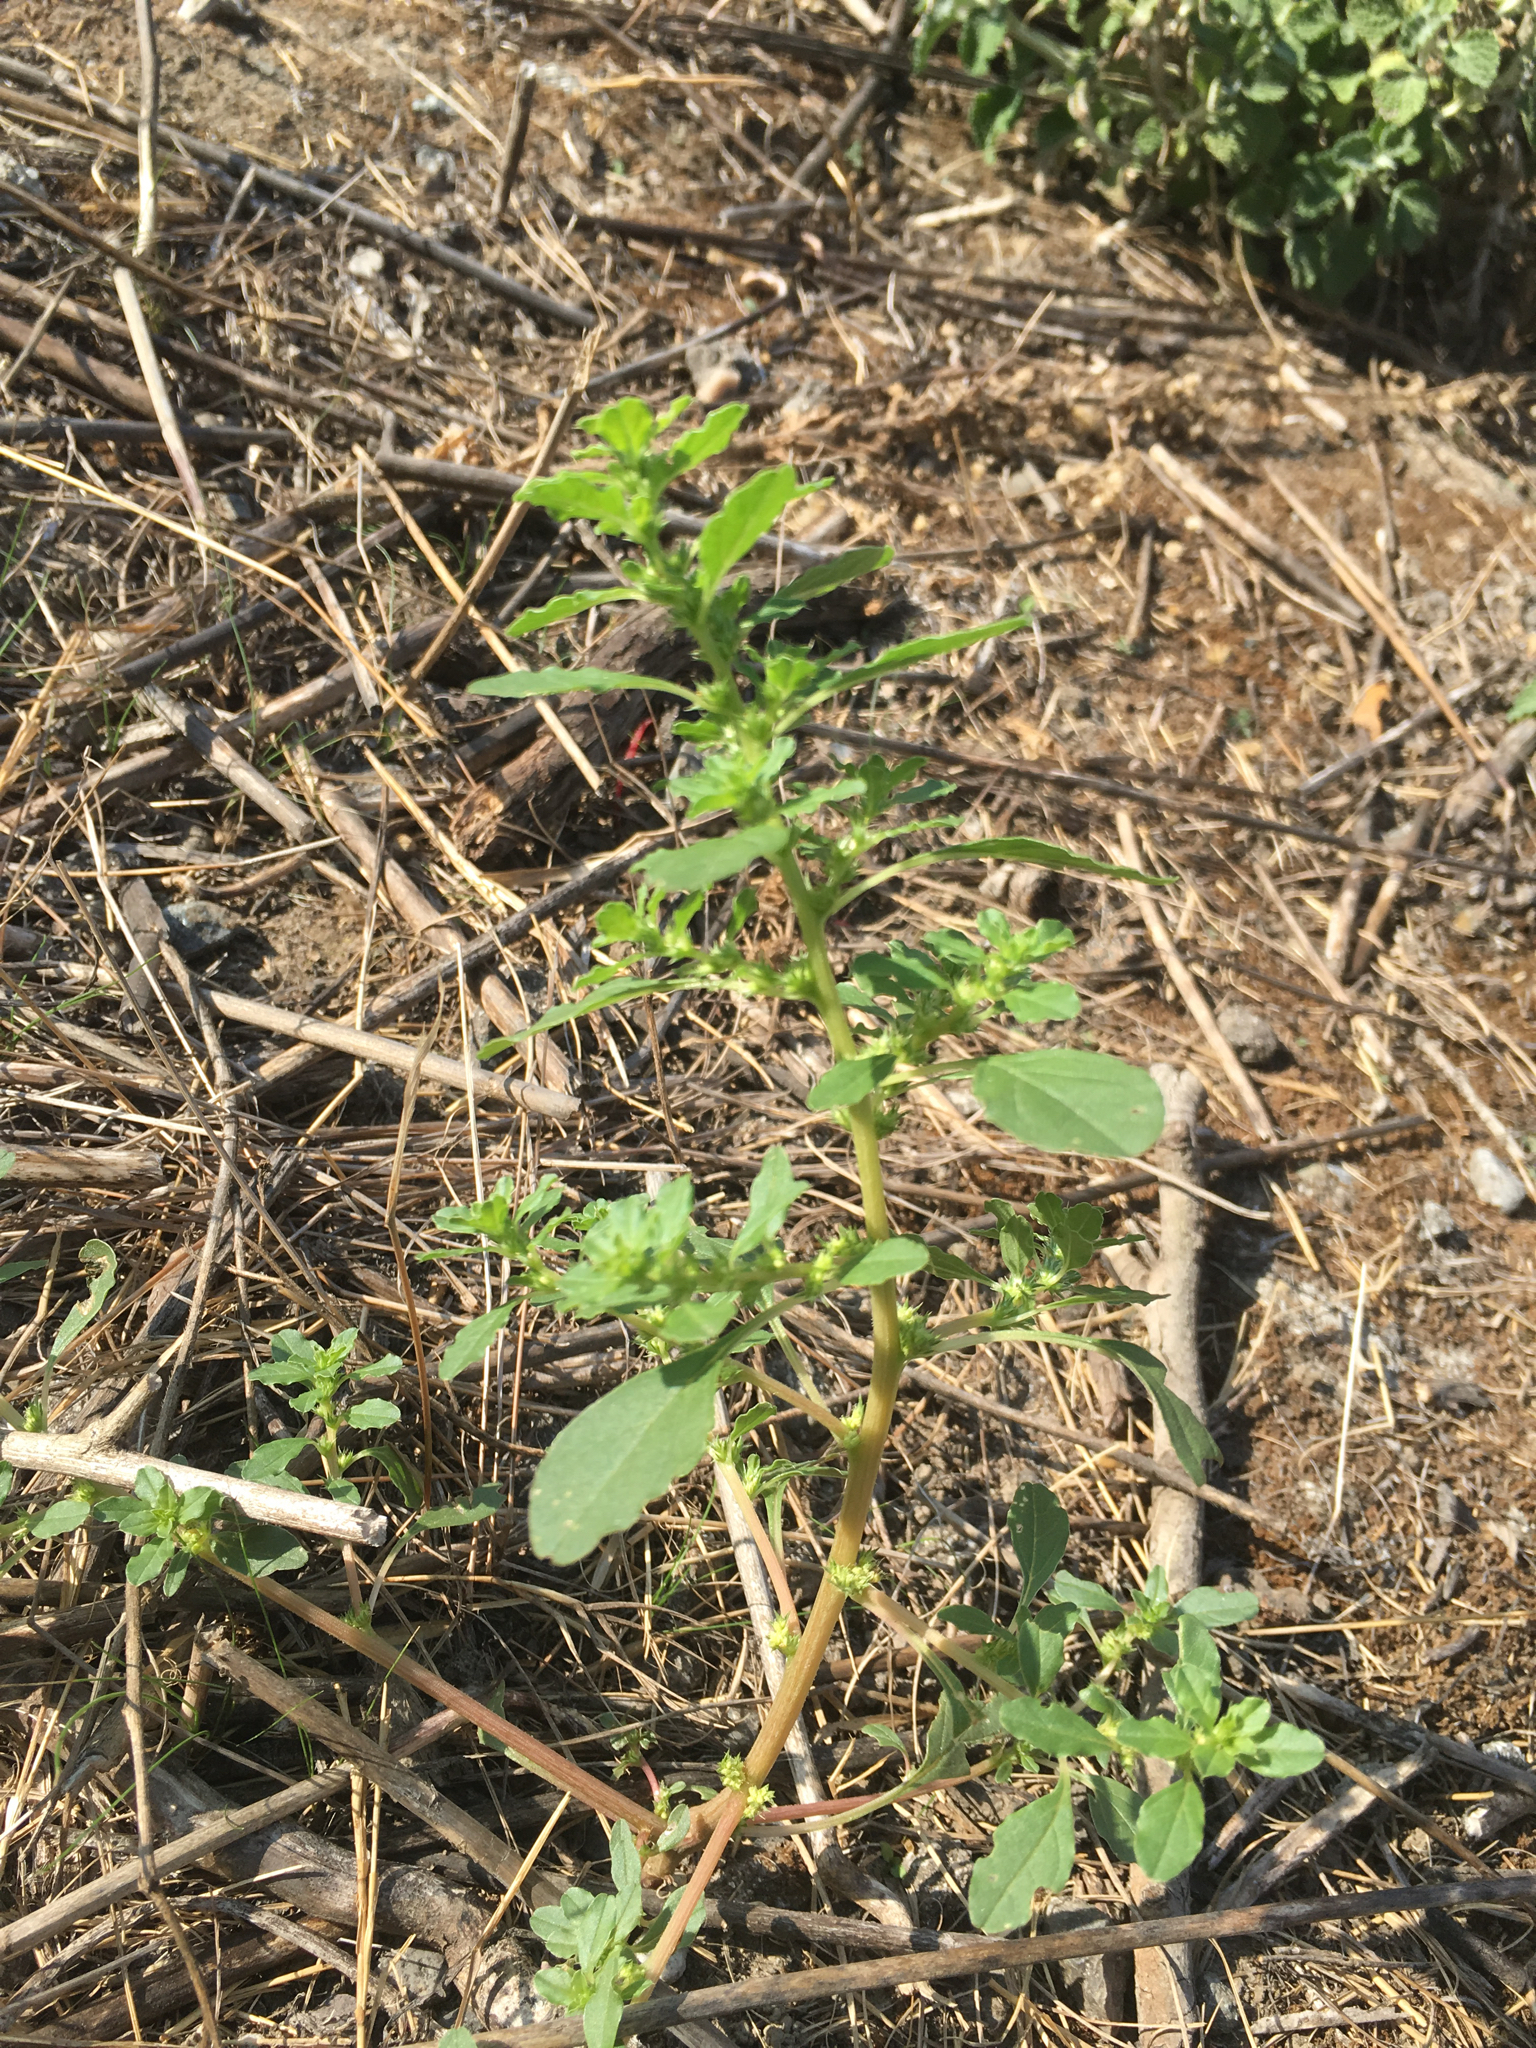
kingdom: Plantae
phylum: Tracheophyta
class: Magnoliopsida
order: Caryophyllales
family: Amaranthaceae
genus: Amaranthus
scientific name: Amaranthus albus
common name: White pigweed
